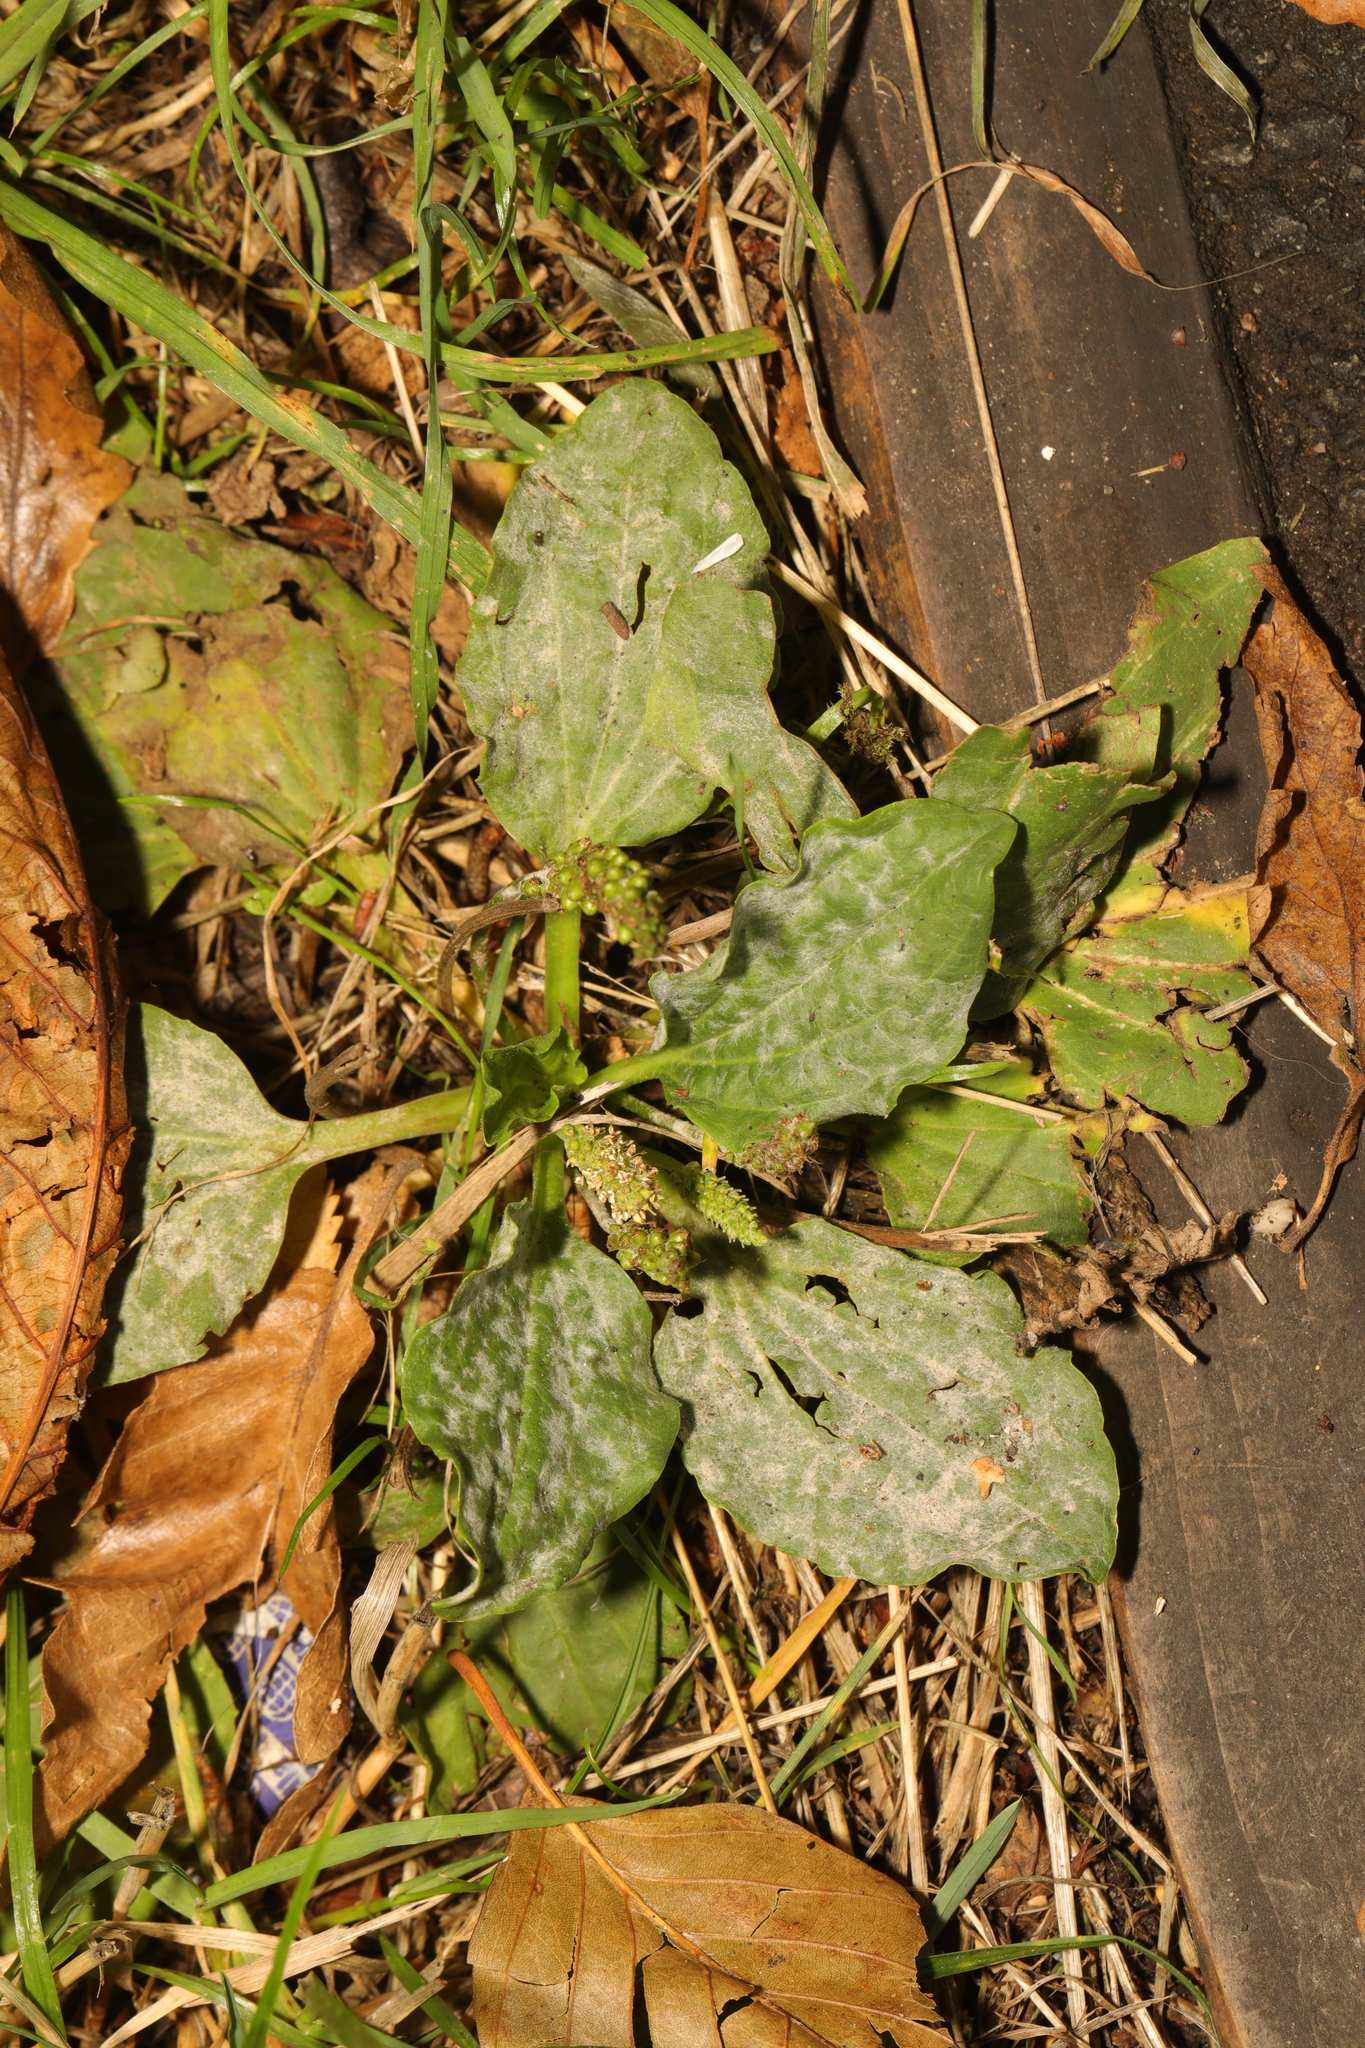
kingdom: Plantae
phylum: Tracheophyta
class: Magnoliopsida
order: Lamiales
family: Plantaginaceae
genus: Plantago
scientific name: Plantago major
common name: Common plantain
